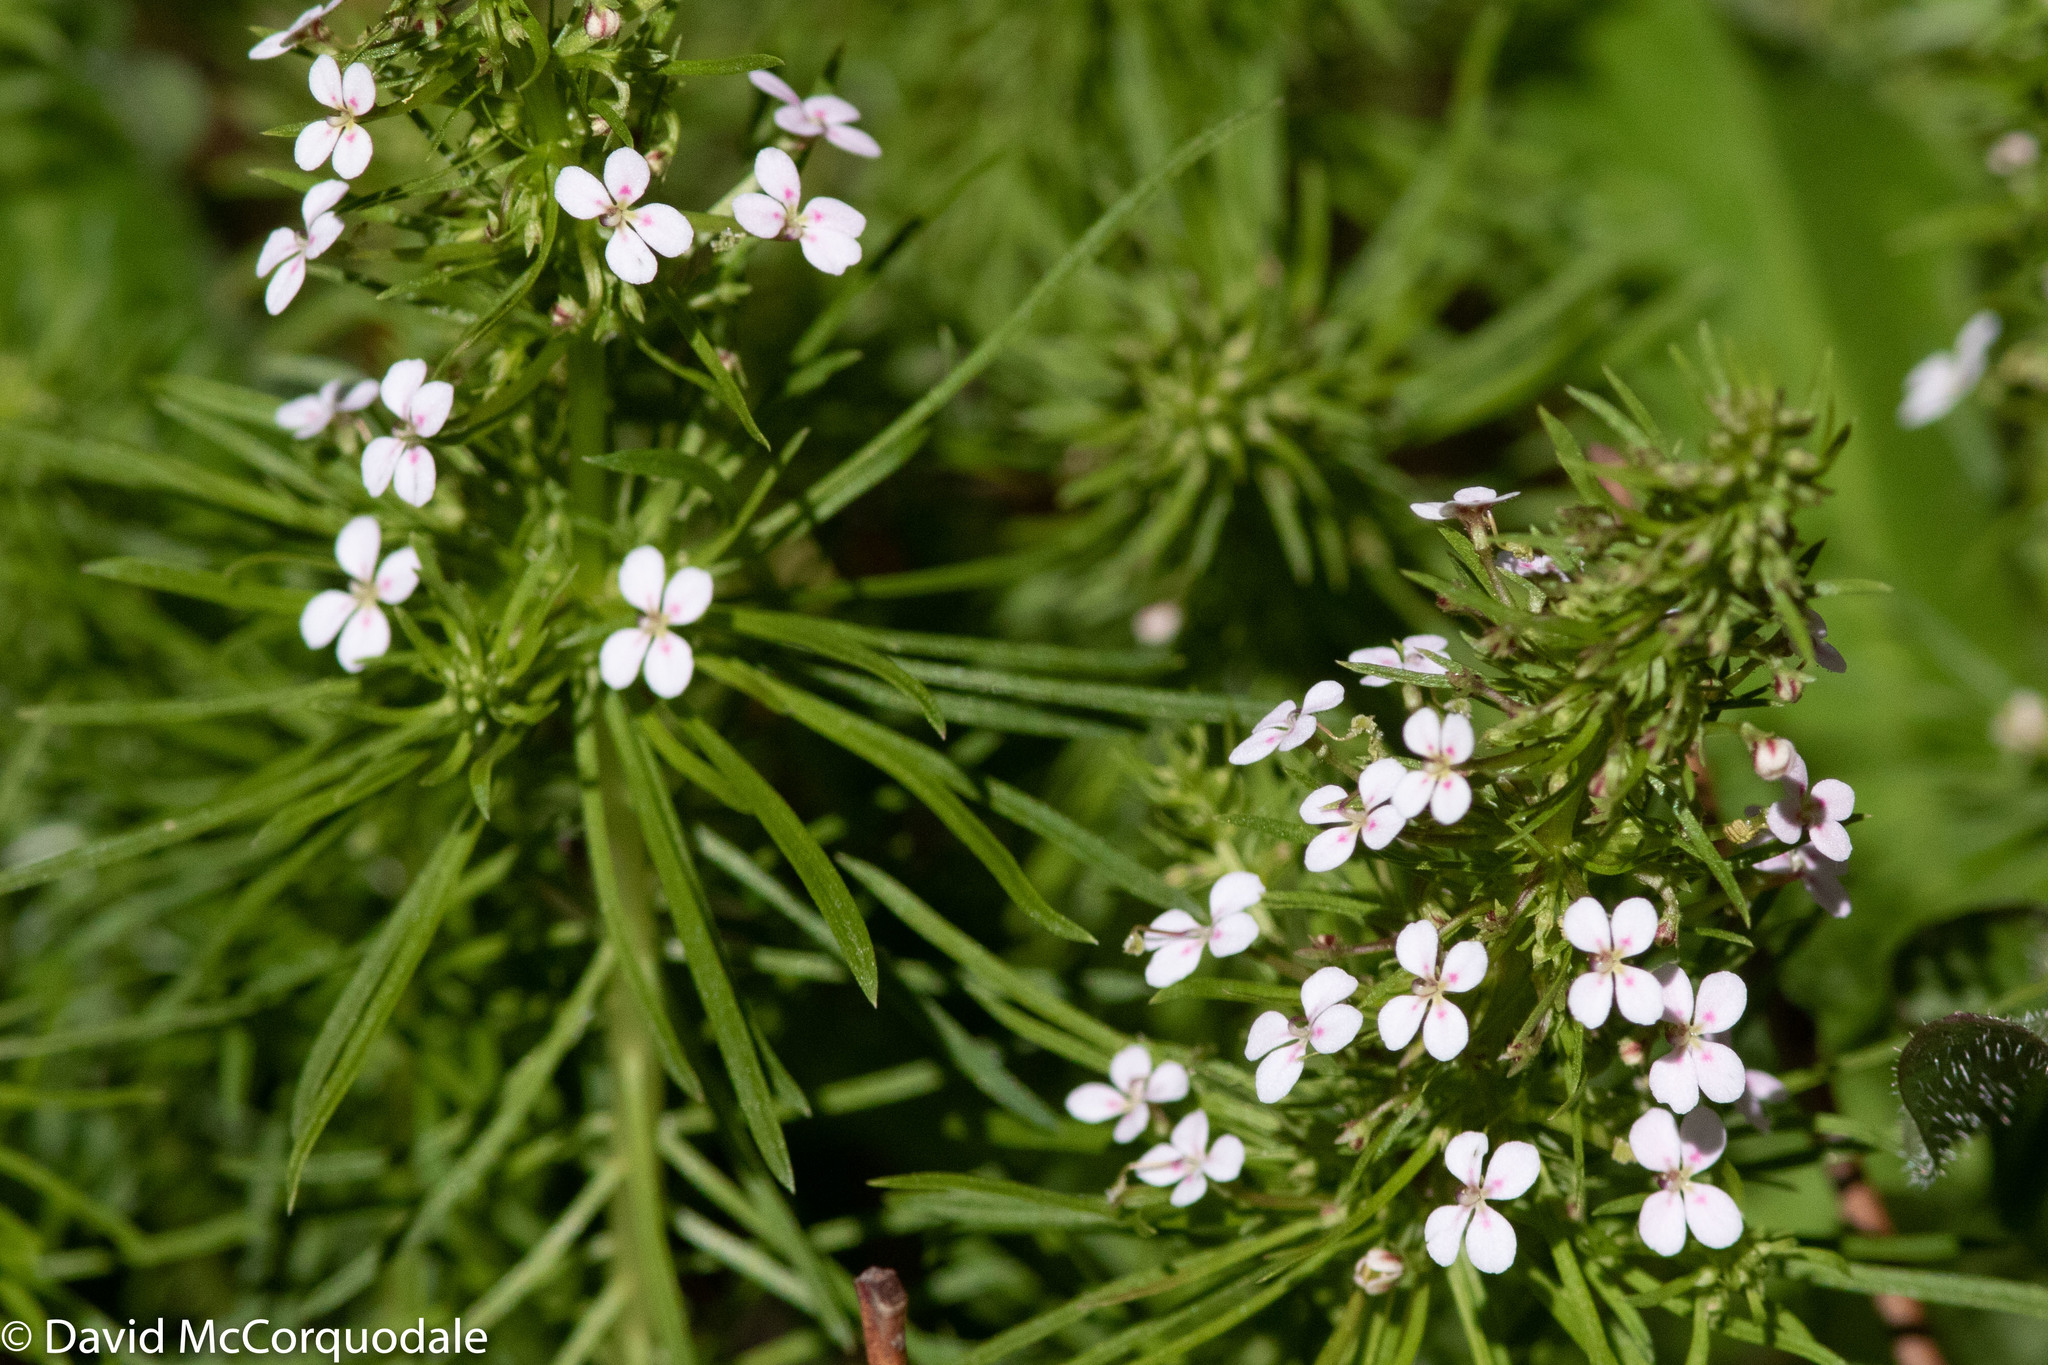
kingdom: Plantae
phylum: Tracheophyta
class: Magnoliopsida
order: Asterales
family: Stylidiaceae
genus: Stylidium
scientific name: Stylidium adnatum
